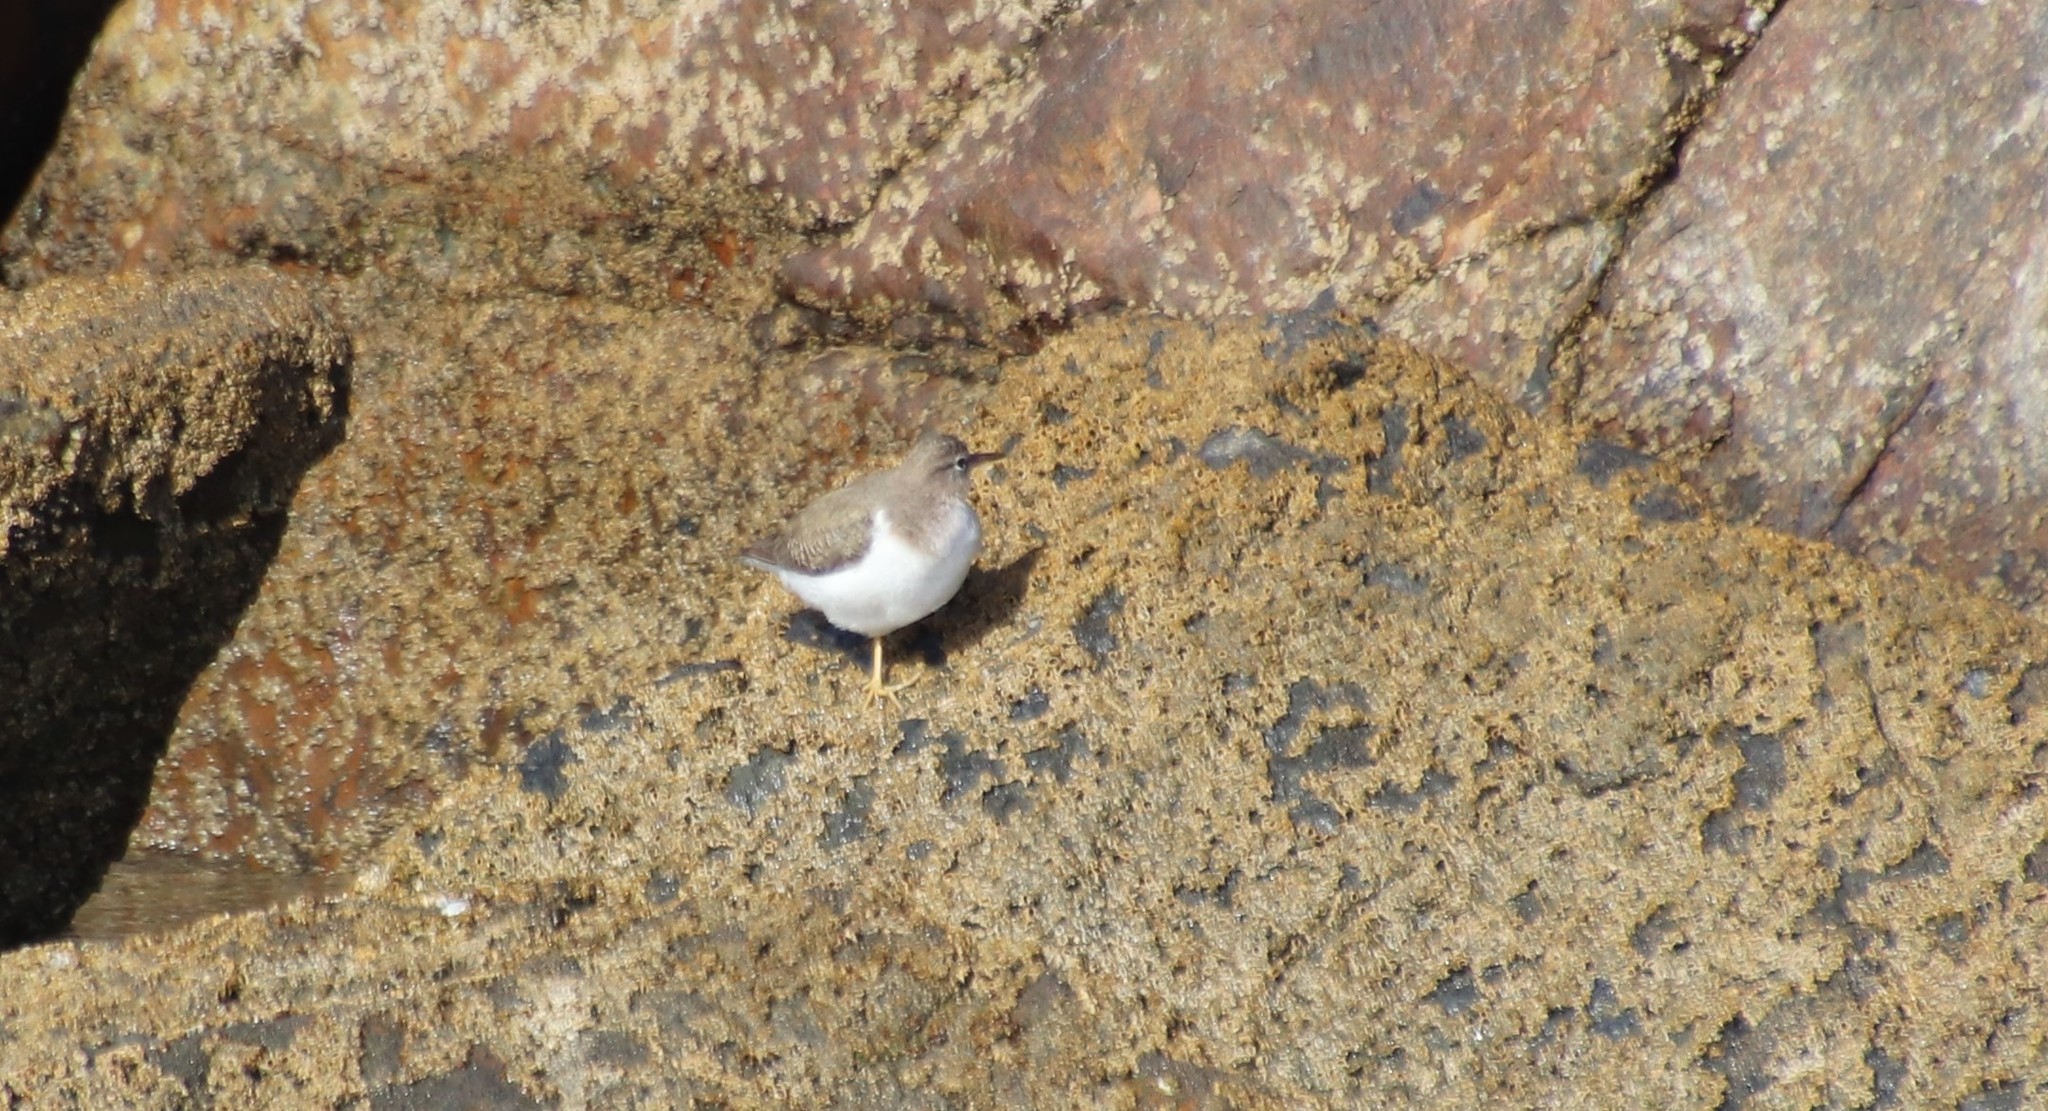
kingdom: Animalia
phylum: Chordata
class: Aves
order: Charadriiformes
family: Scolopacidae
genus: Actitis
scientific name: Actitis macularius
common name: Spotted sandpiper
